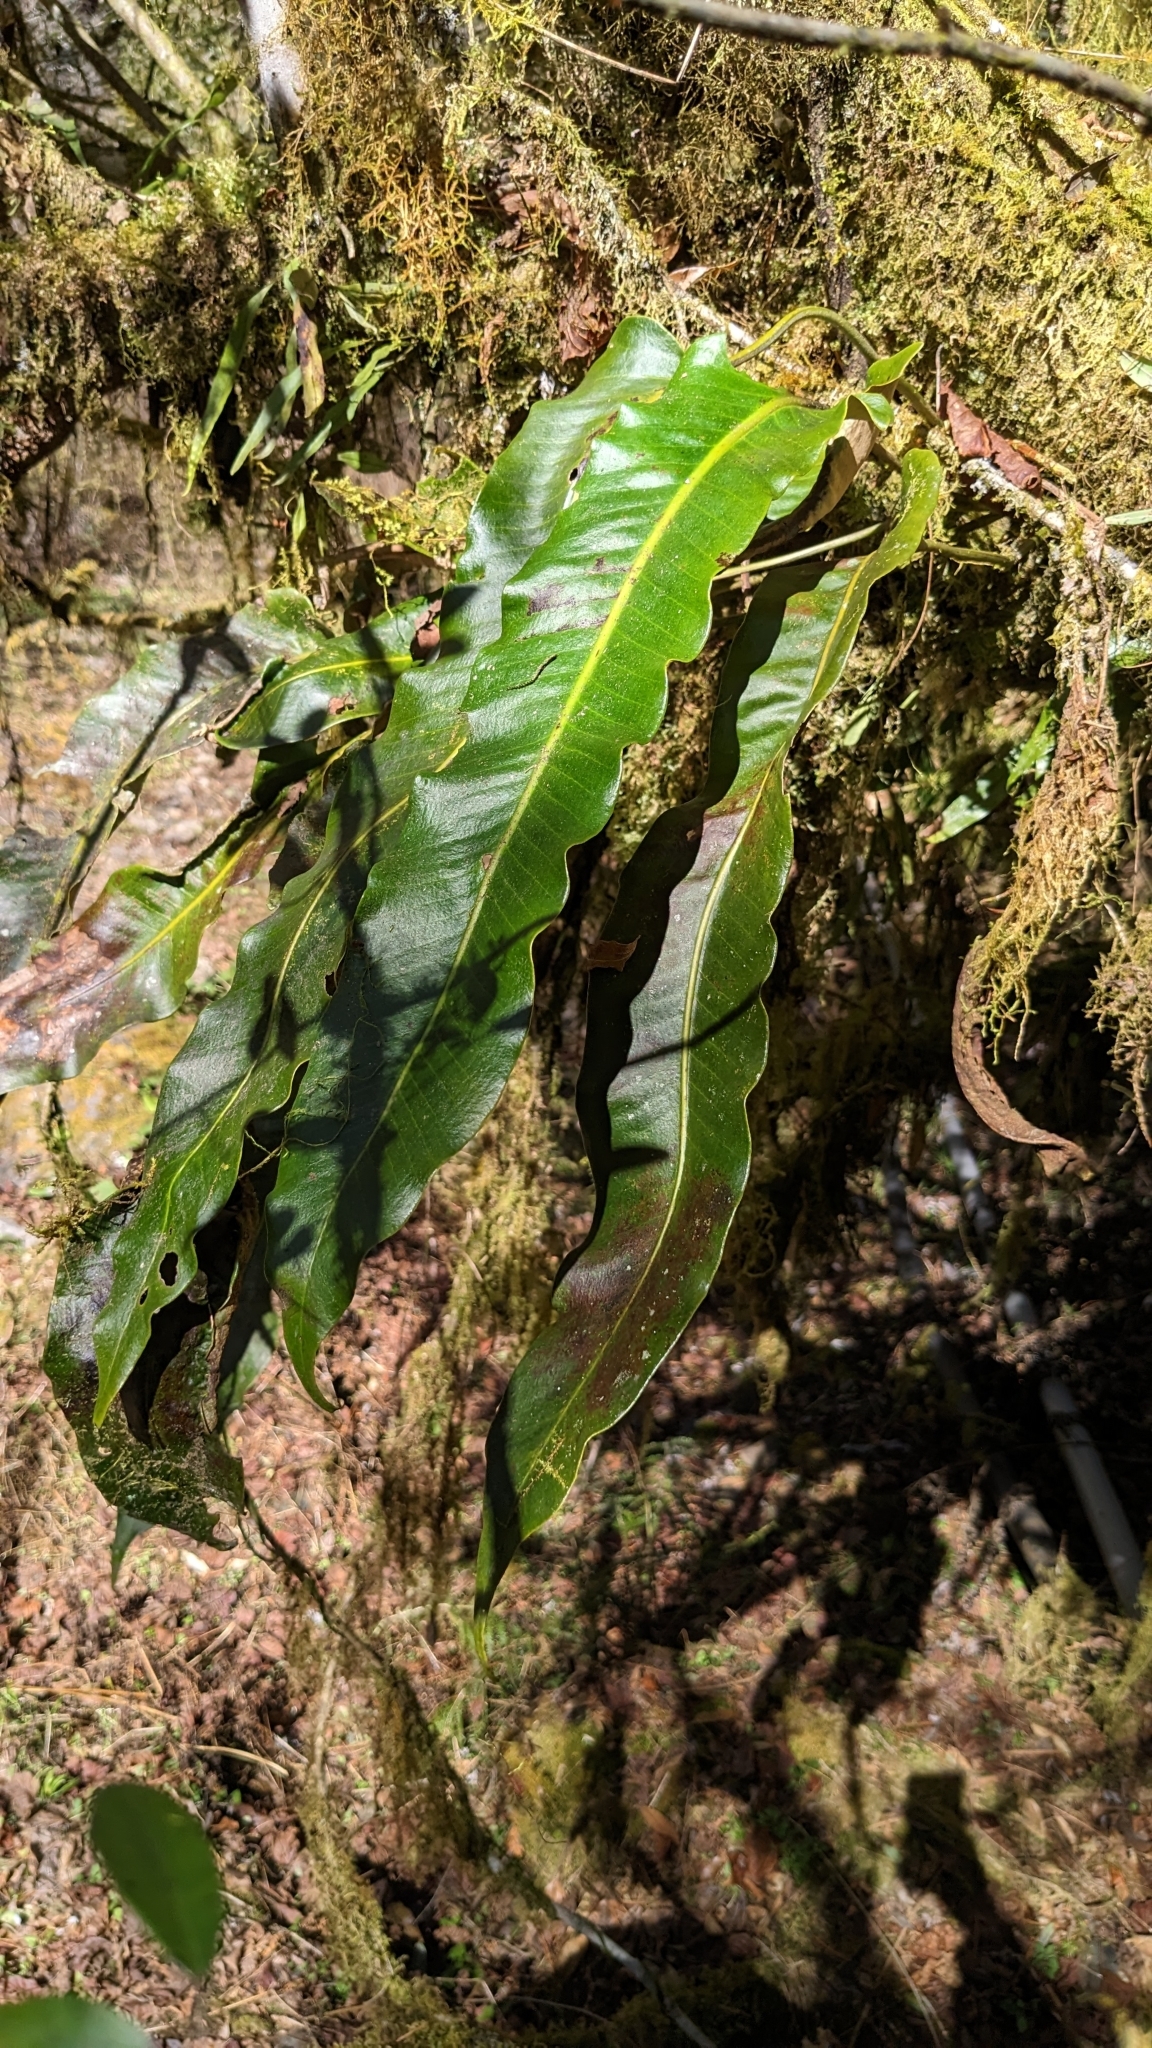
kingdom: Plantae
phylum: Tracheophyta
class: Polypodiopsida
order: Polypodiales
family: Polypodiaceae
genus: Pyrrosia
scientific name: Pyrrosia sheareri
